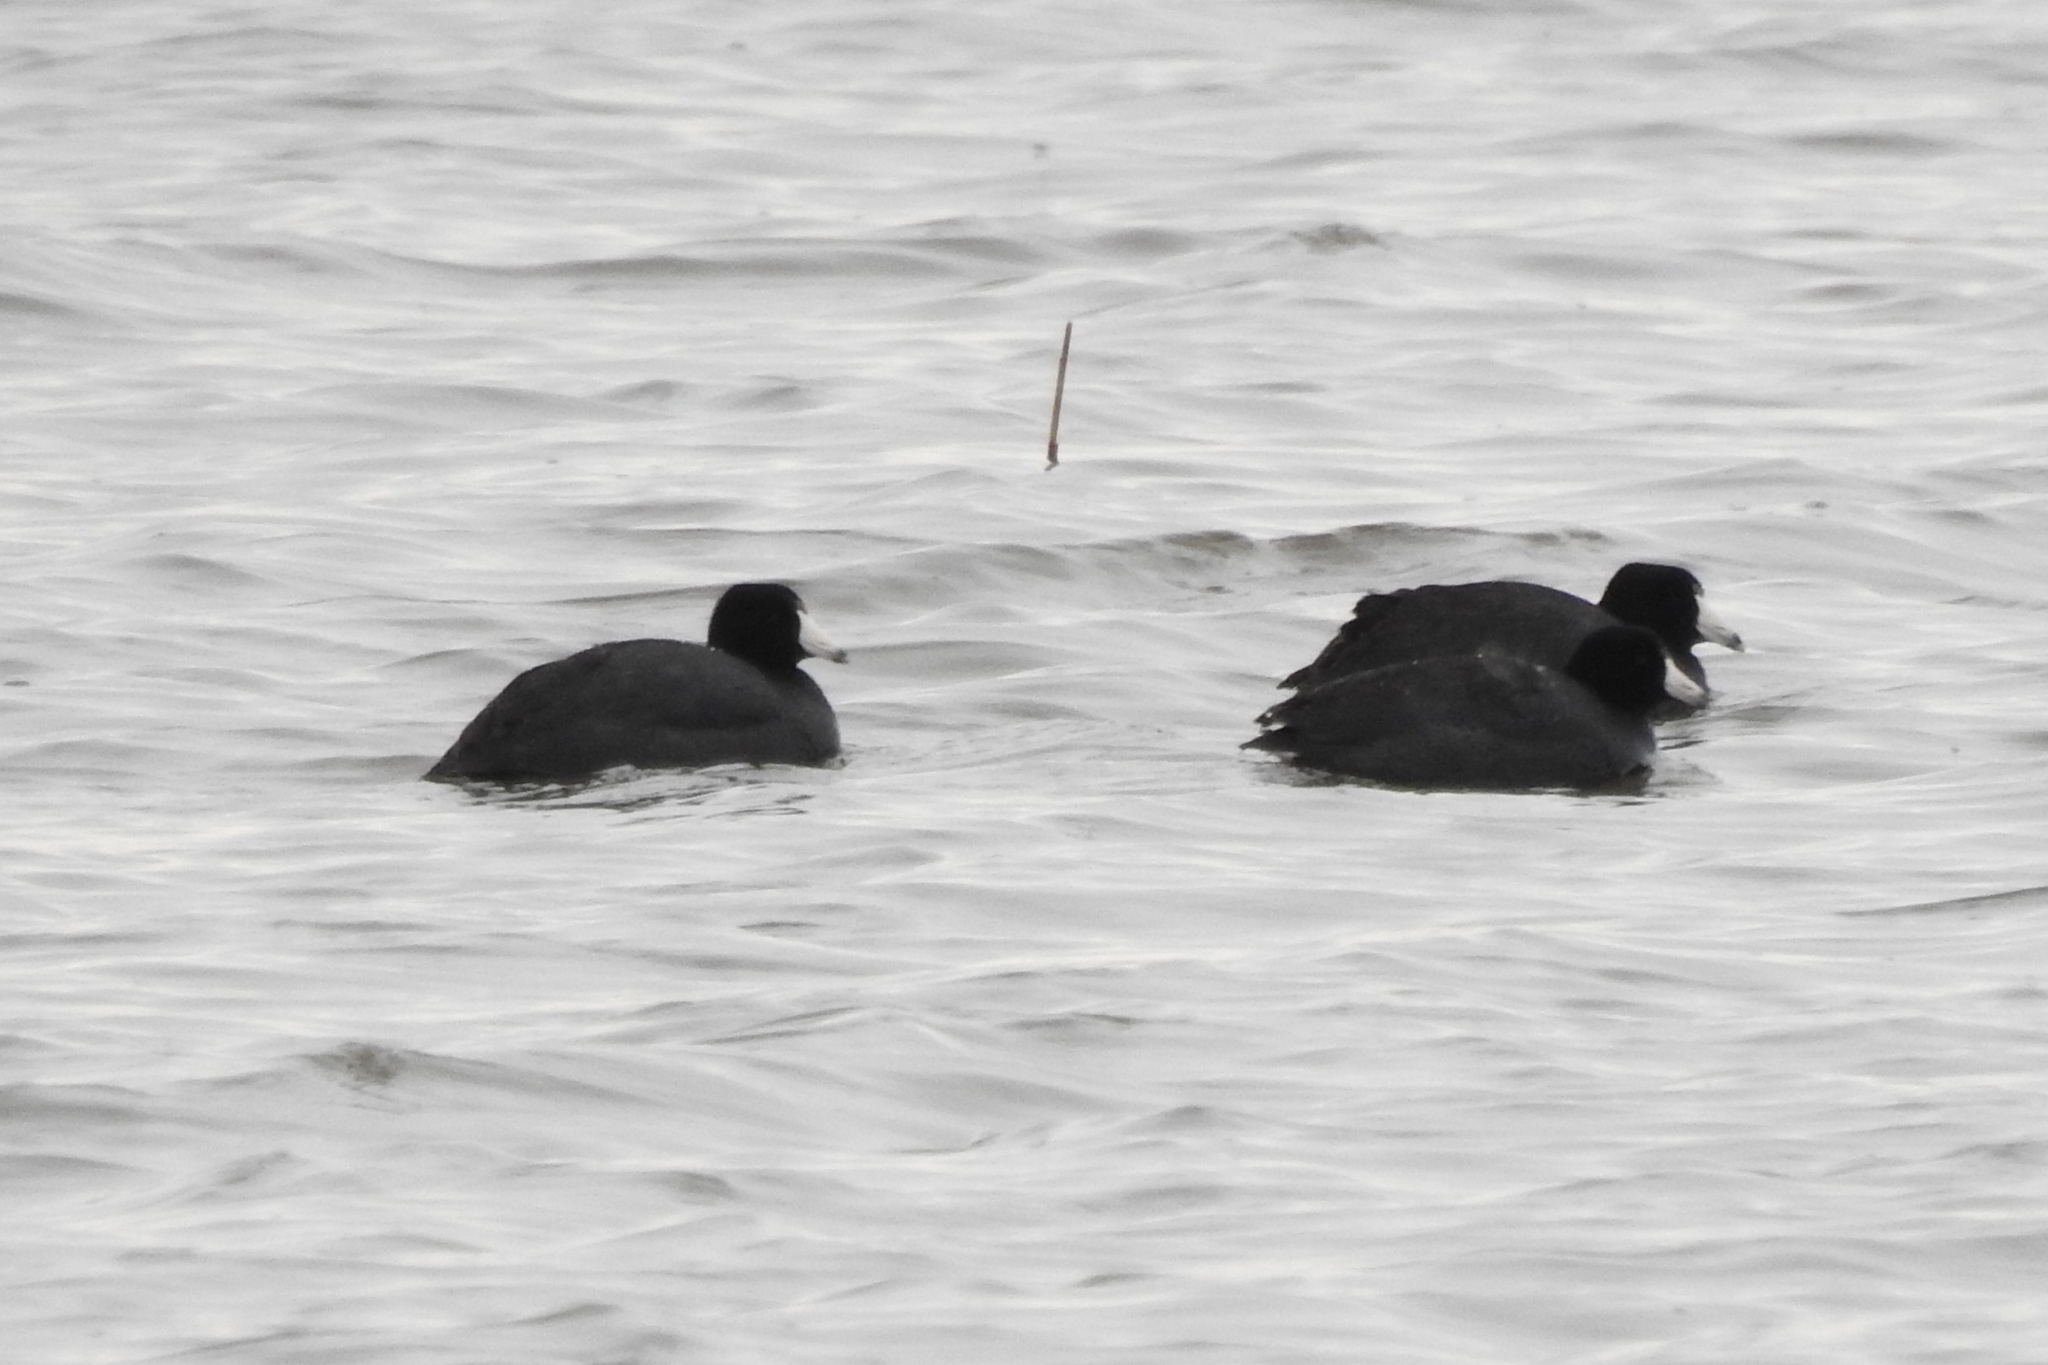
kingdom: Animalia
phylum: Chordata
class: Aves
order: Gruiformes
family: Rallidae
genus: Fulica
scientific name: Fulica americana
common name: American coot
